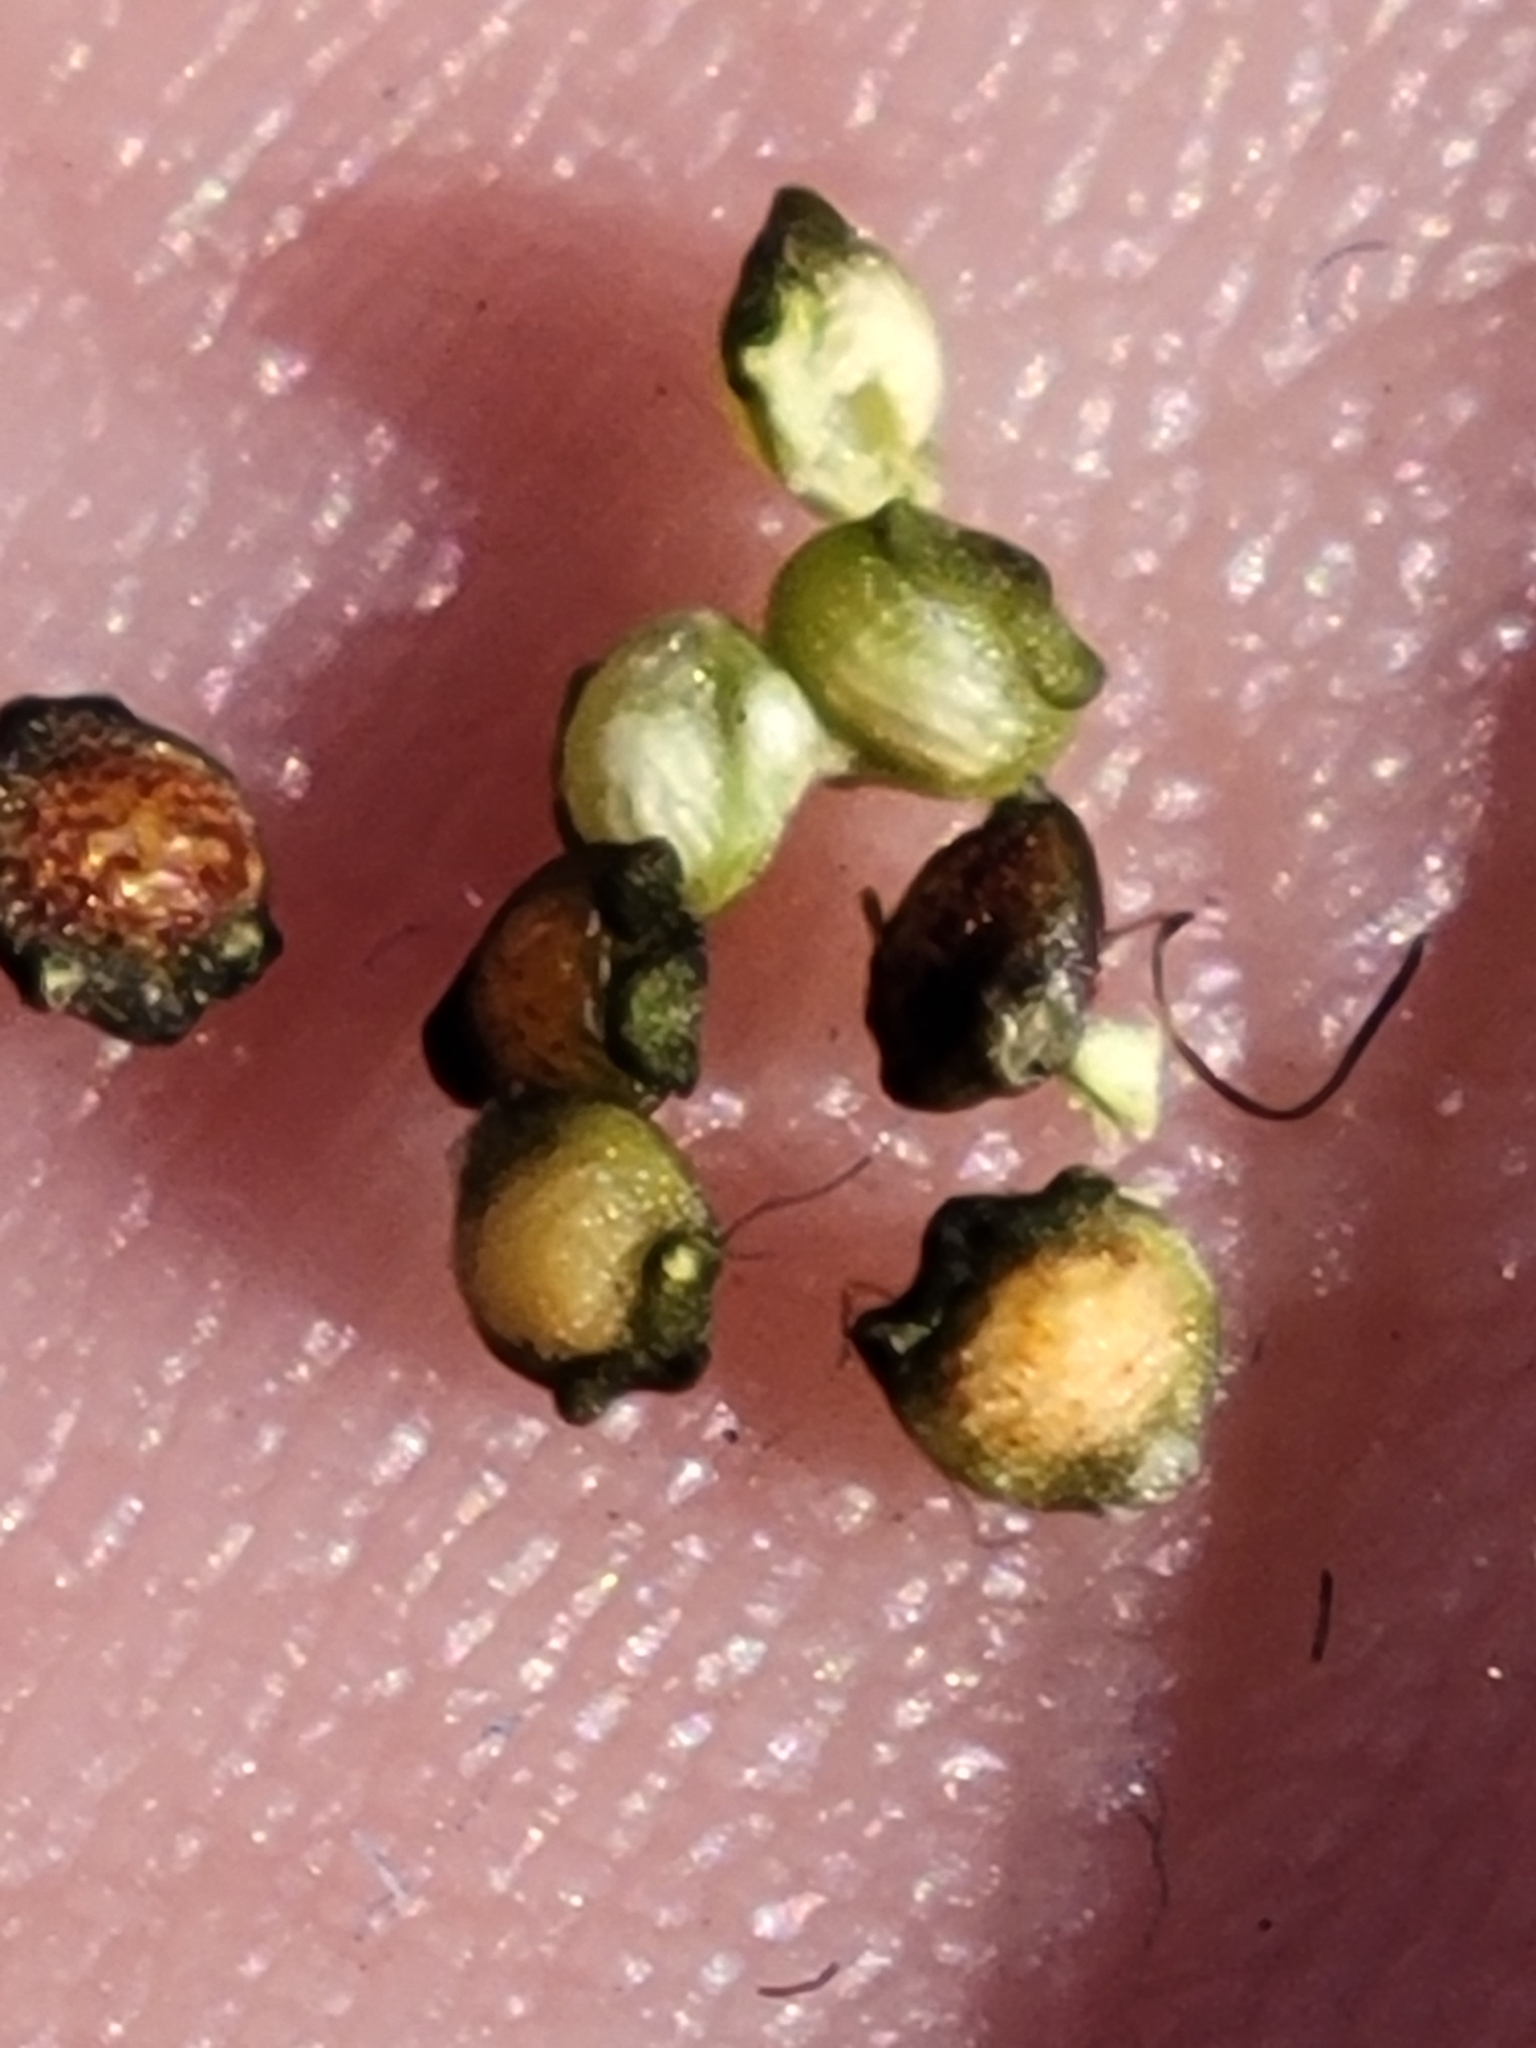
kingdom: Plantae
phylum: Tracheophyta
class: Liliopsida
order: Poales
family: Cyperaceae
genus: Rhynchospora
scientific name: Rhynchospora eximia
